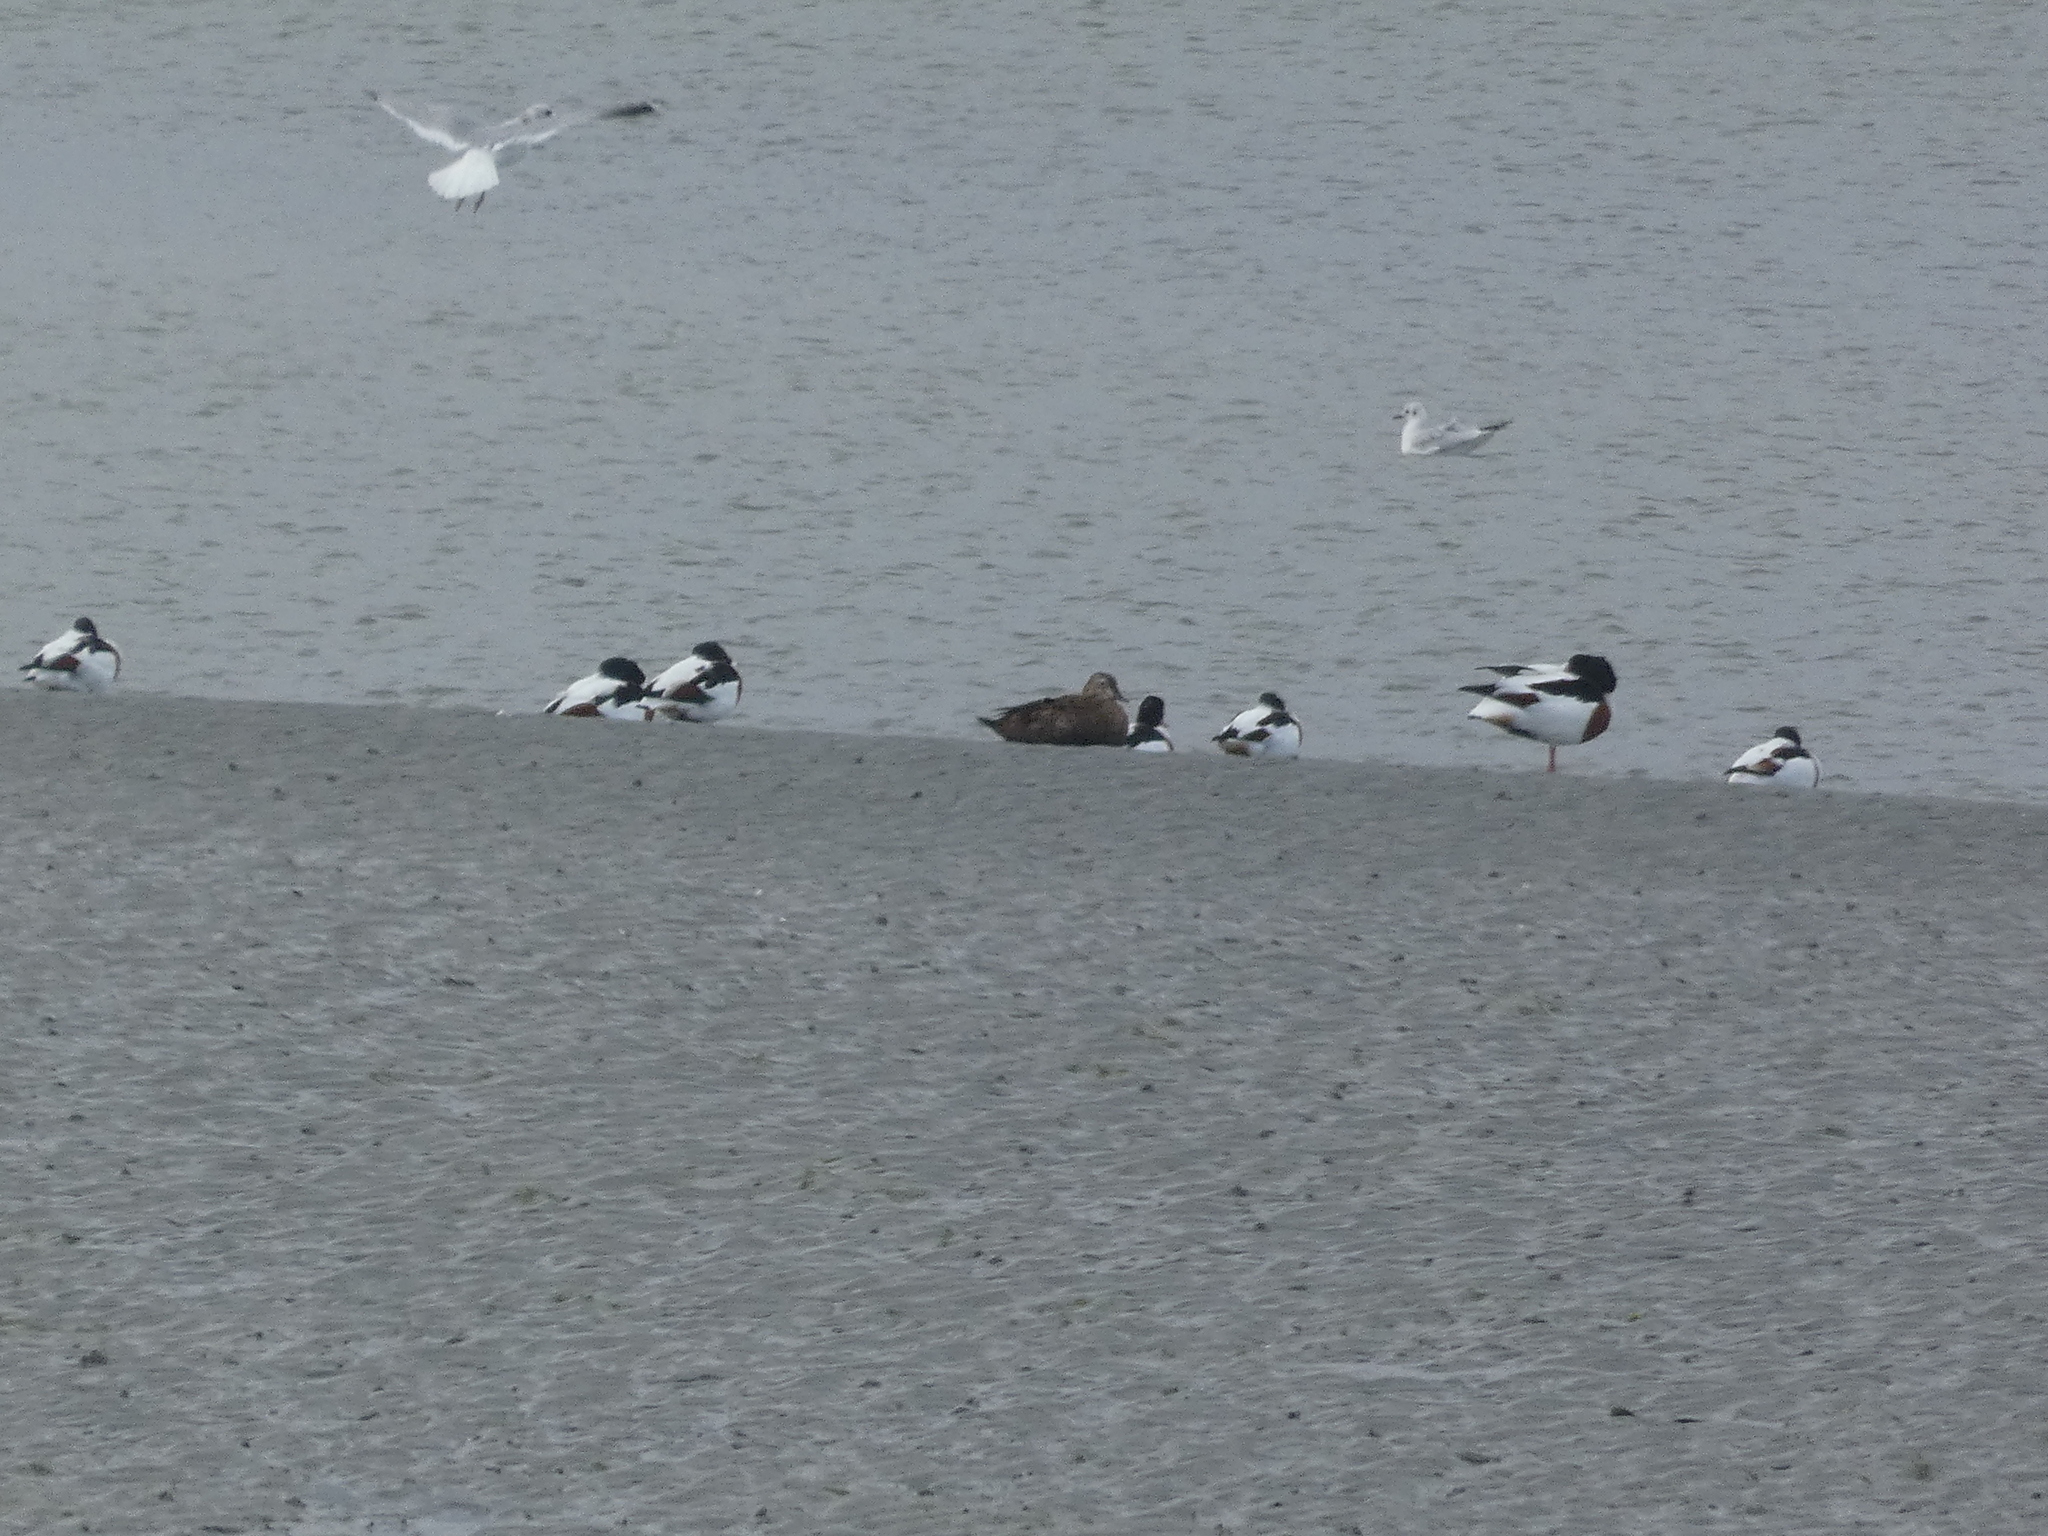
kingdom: Animalia
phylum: Chordata
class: Aves
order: Anseriformes
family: Anatidae
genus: Tadorna
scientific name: Tadorna tadorna
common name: Common shelduck
